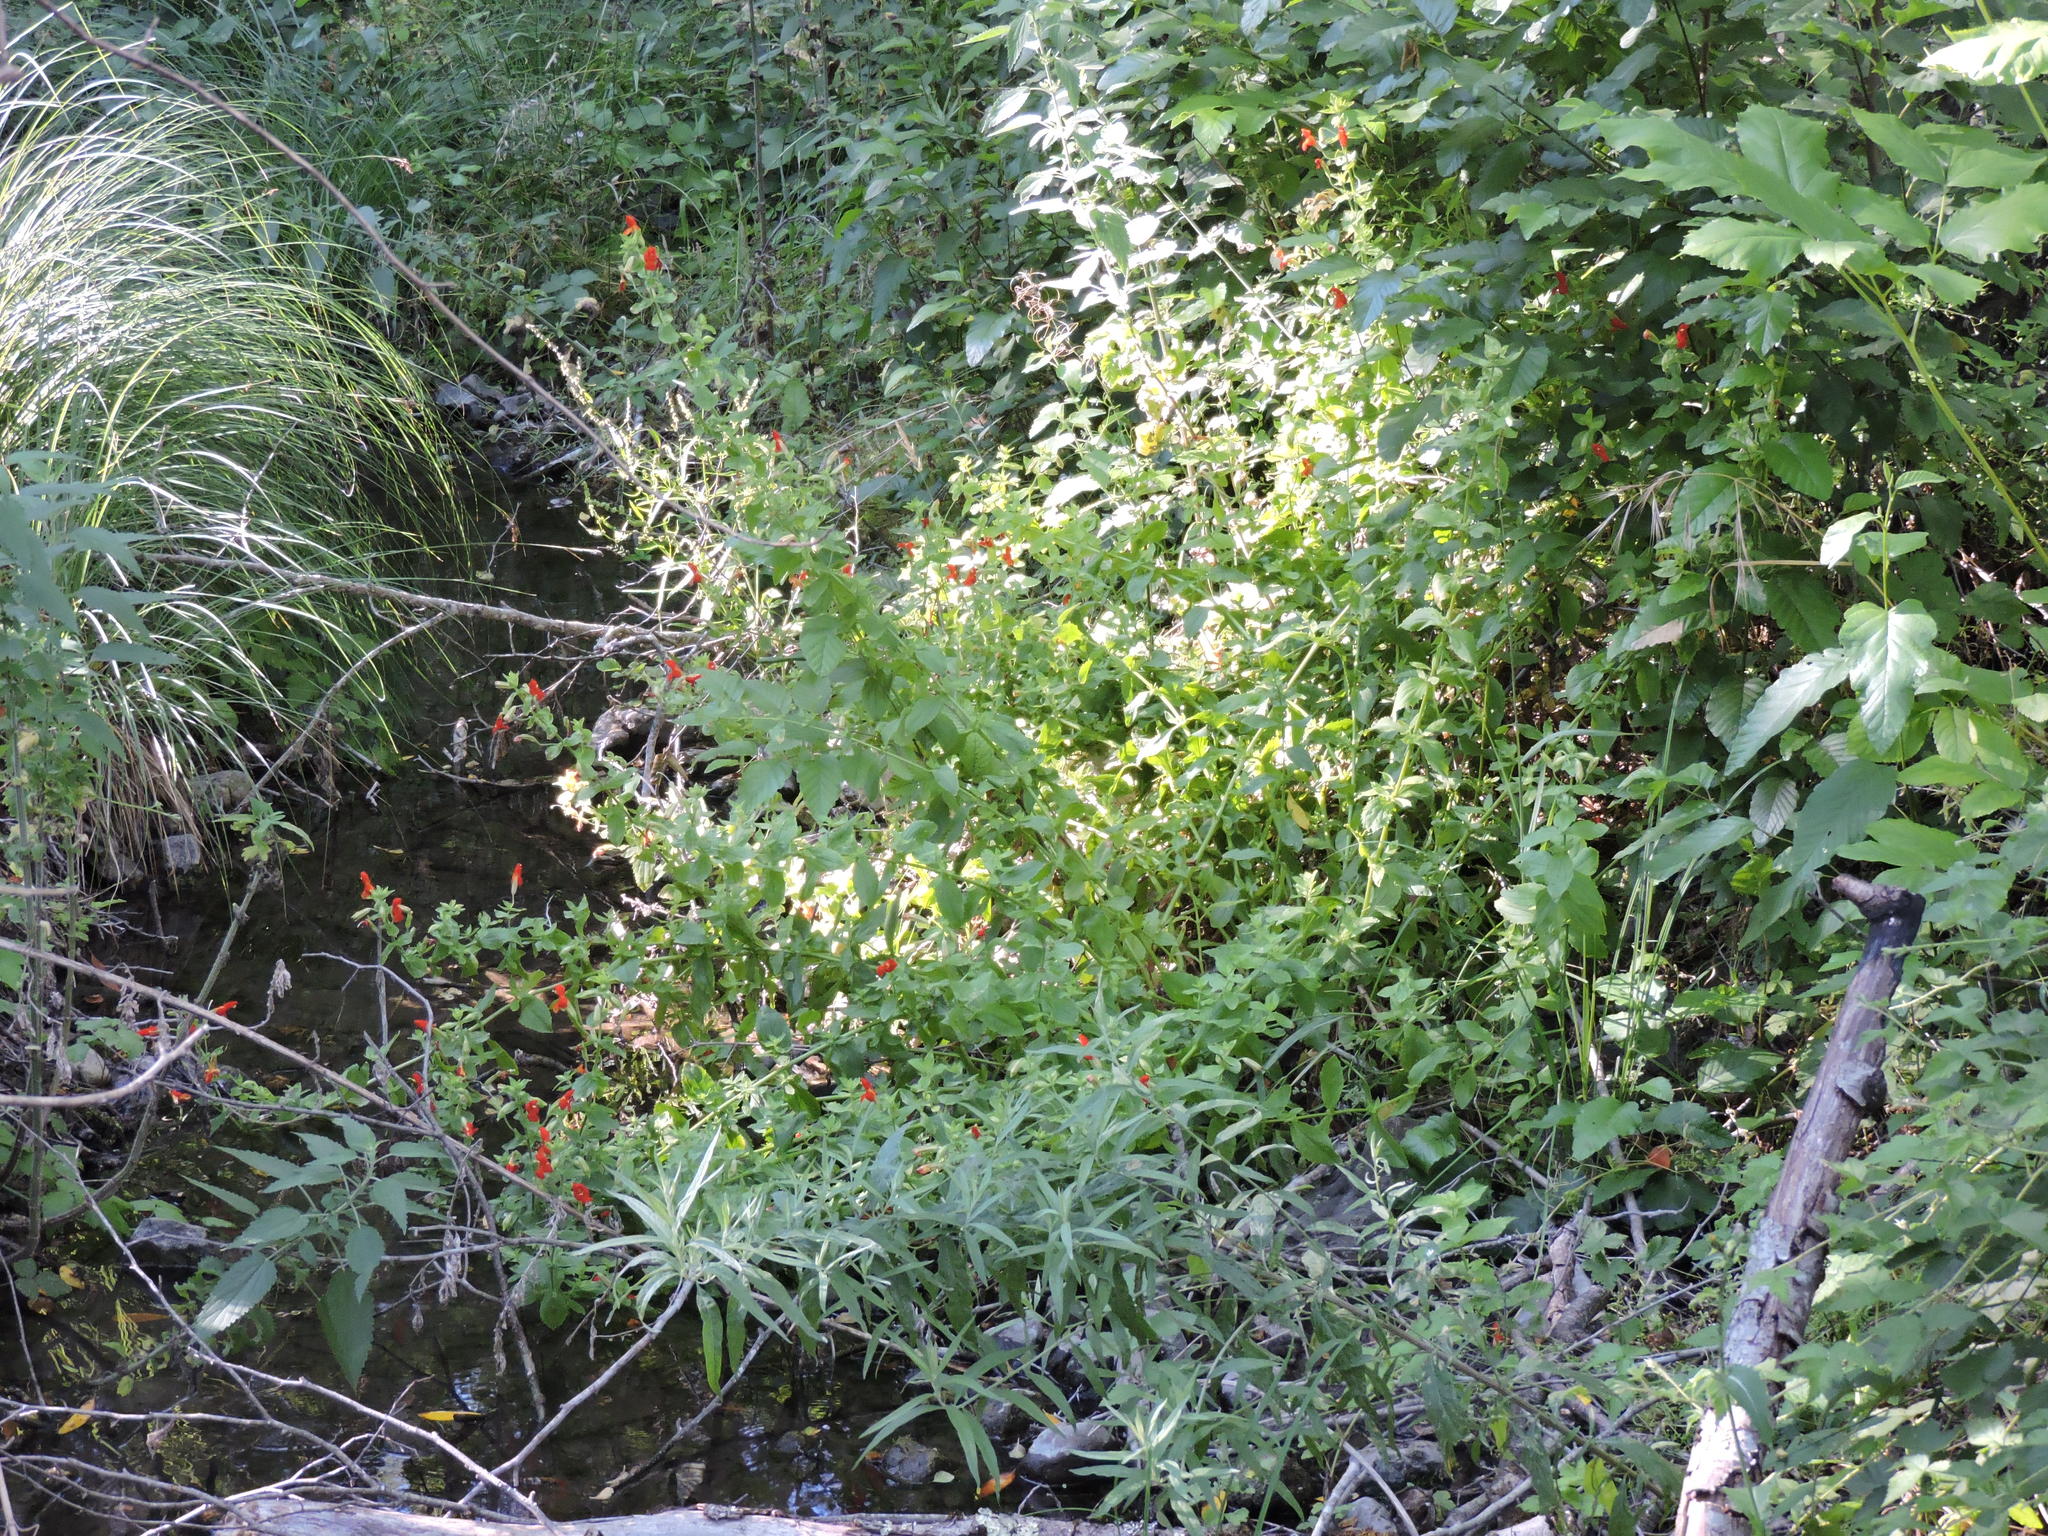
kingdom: Plantae
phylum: Tracheophyta
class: Magnoliopsida
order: Lamiales
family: Phrymaceae
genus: Erythranthe
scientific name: Erythranthe cardinalis
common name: Scarlet monkey-flower
